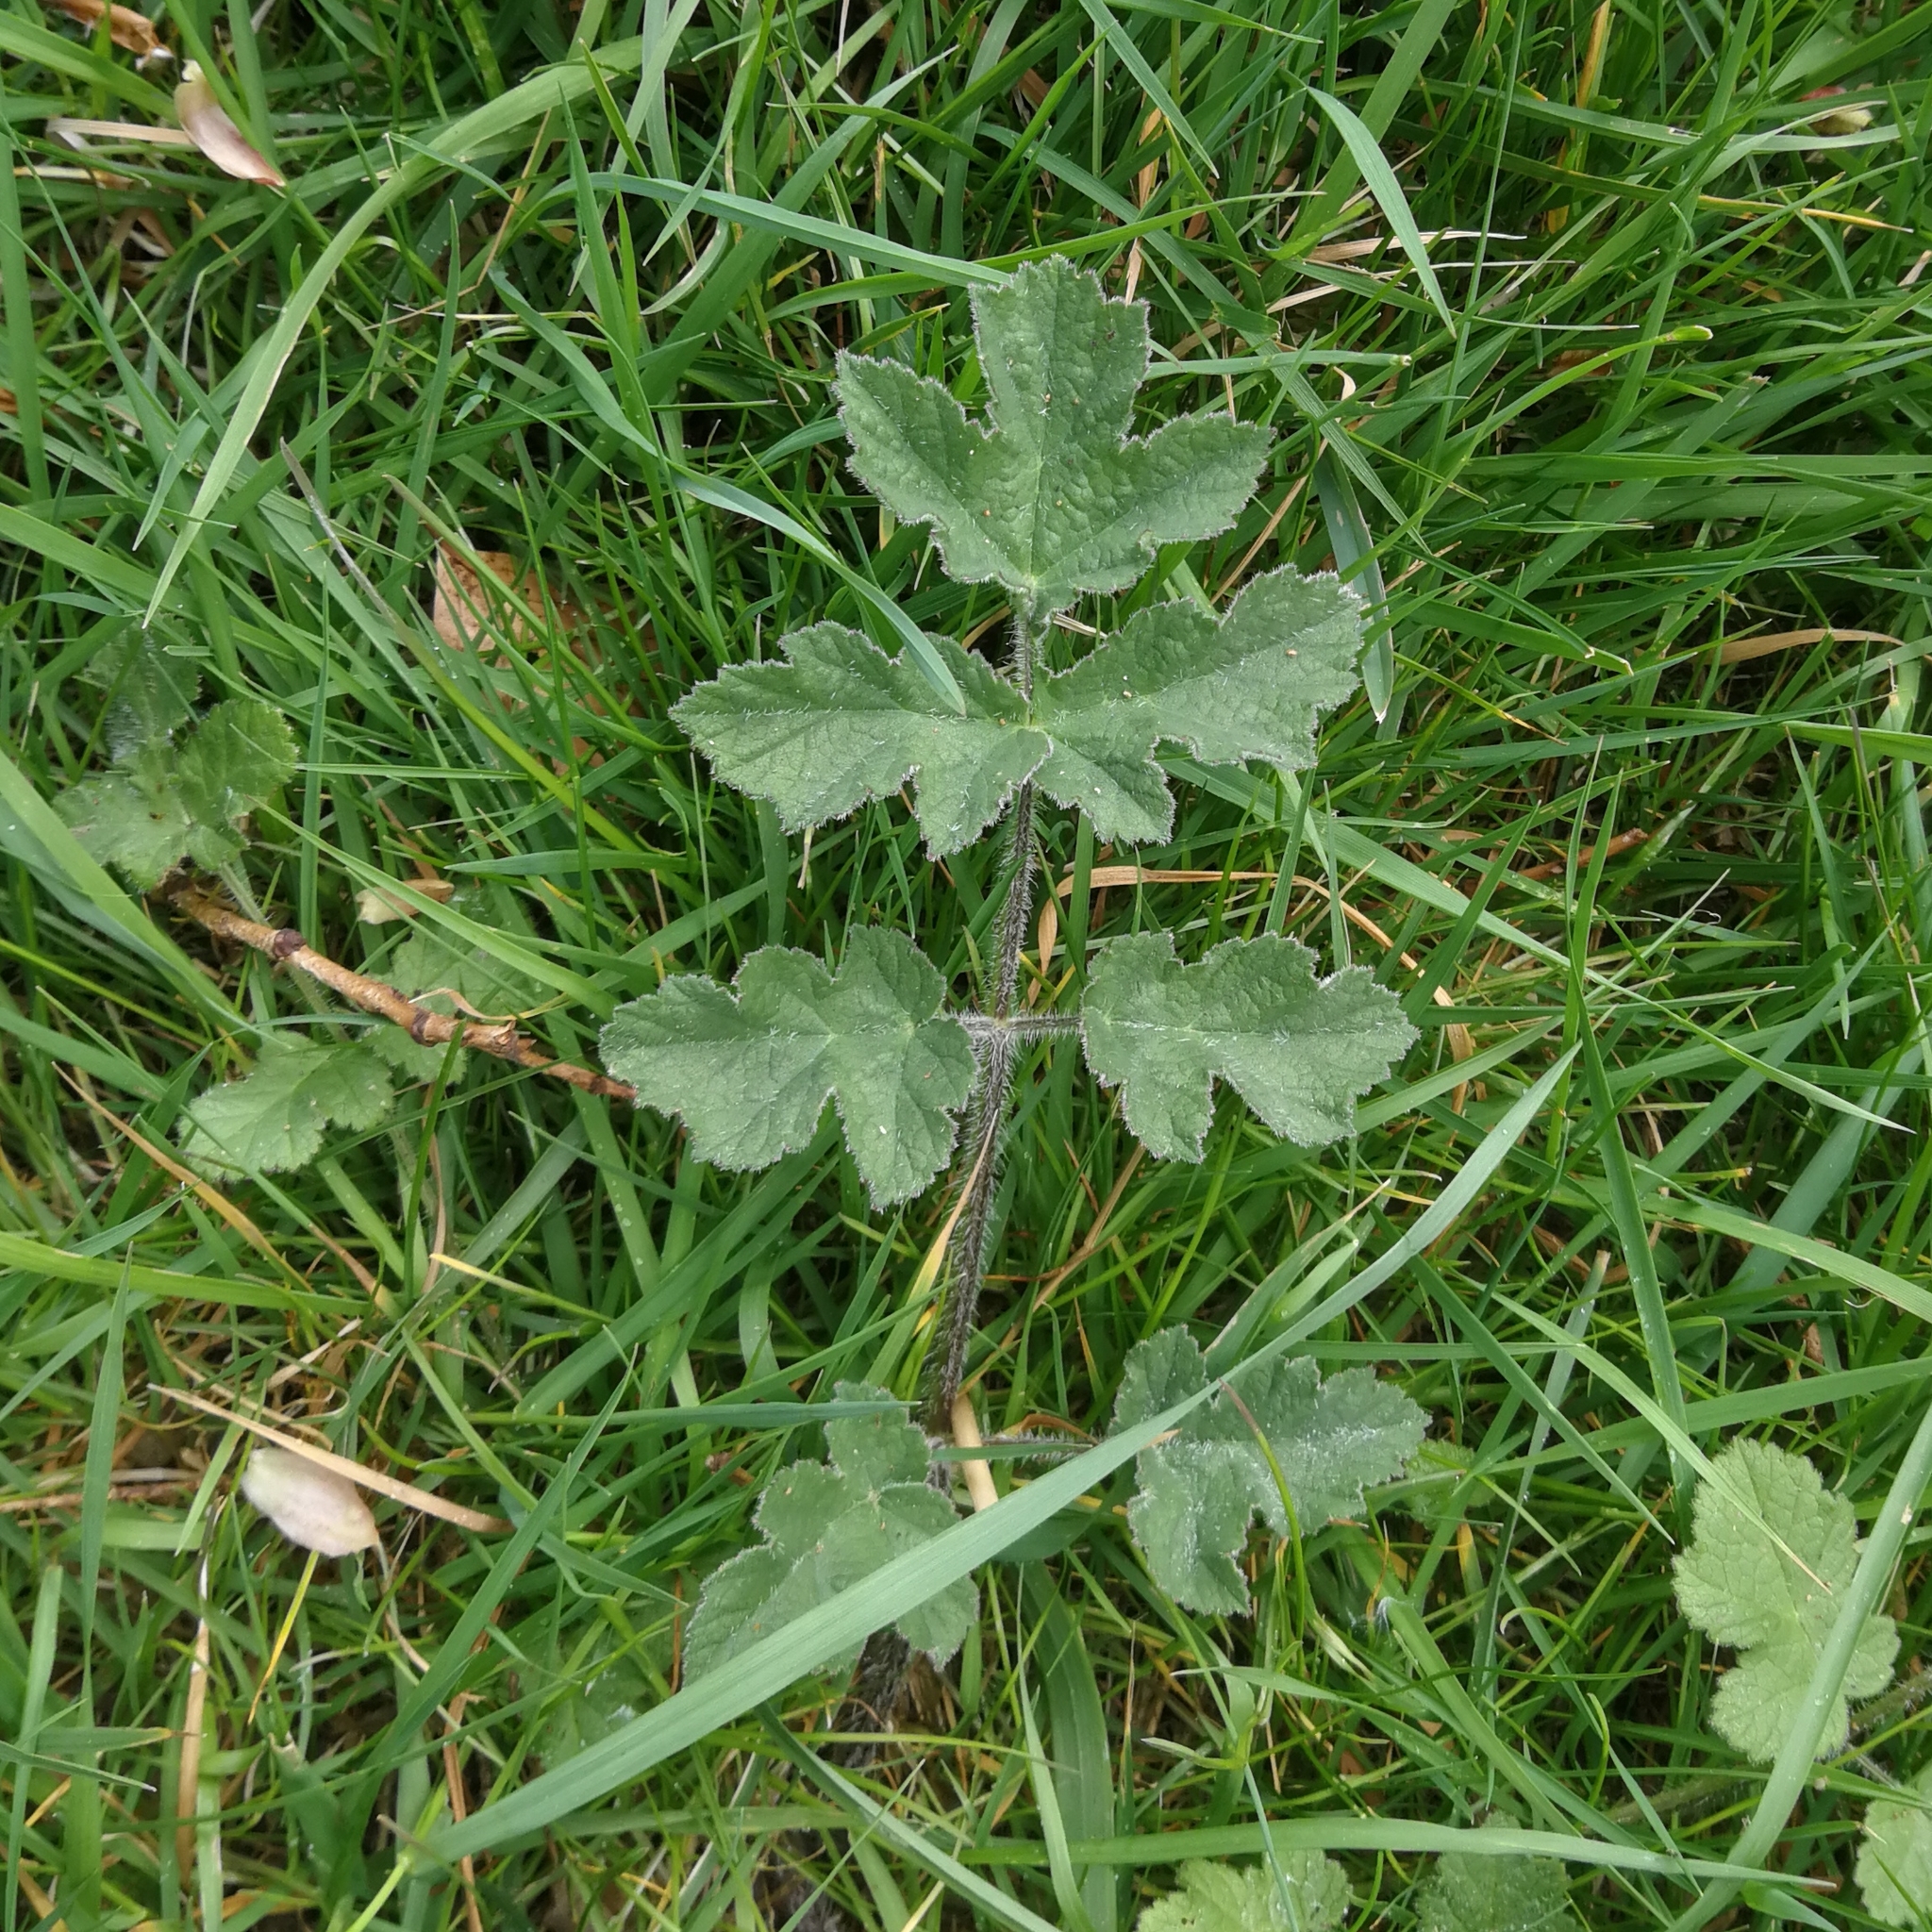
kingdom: Plantae
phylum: Tracheophyta
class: Magnoliopsida
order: Apiales
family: Apiaceae
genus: Heracleum
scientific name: Heracleum sphondylium
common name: Hogweed
